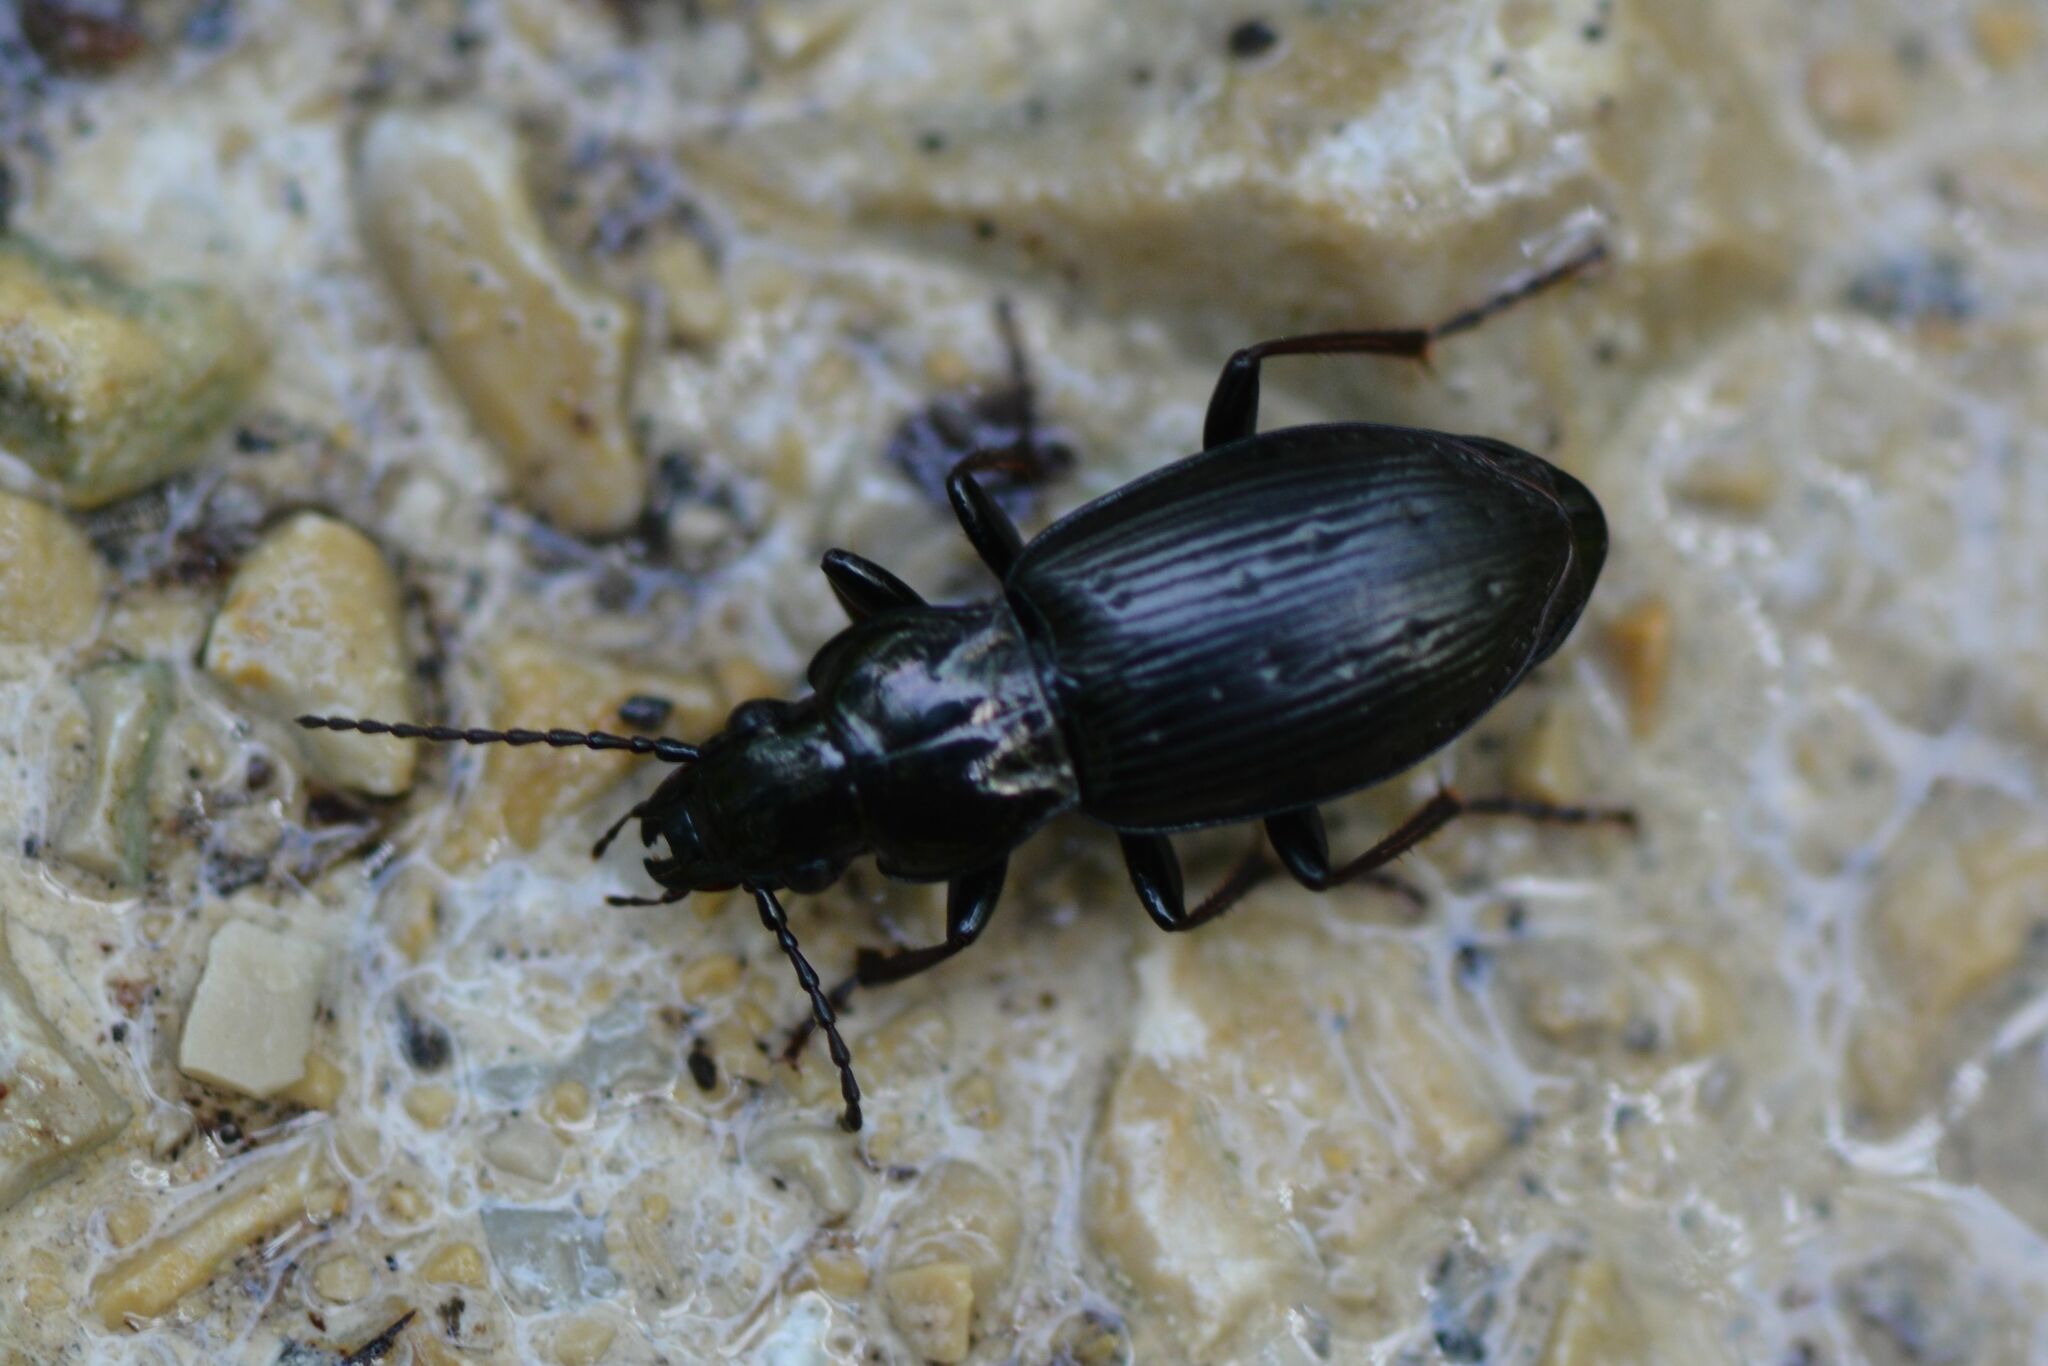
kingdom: Animalia
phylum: Arthropoda
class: Insecta
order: Coleoptera
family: Carabidae
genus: Pterostichus
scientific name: Pterostichus oblongopunctatus
